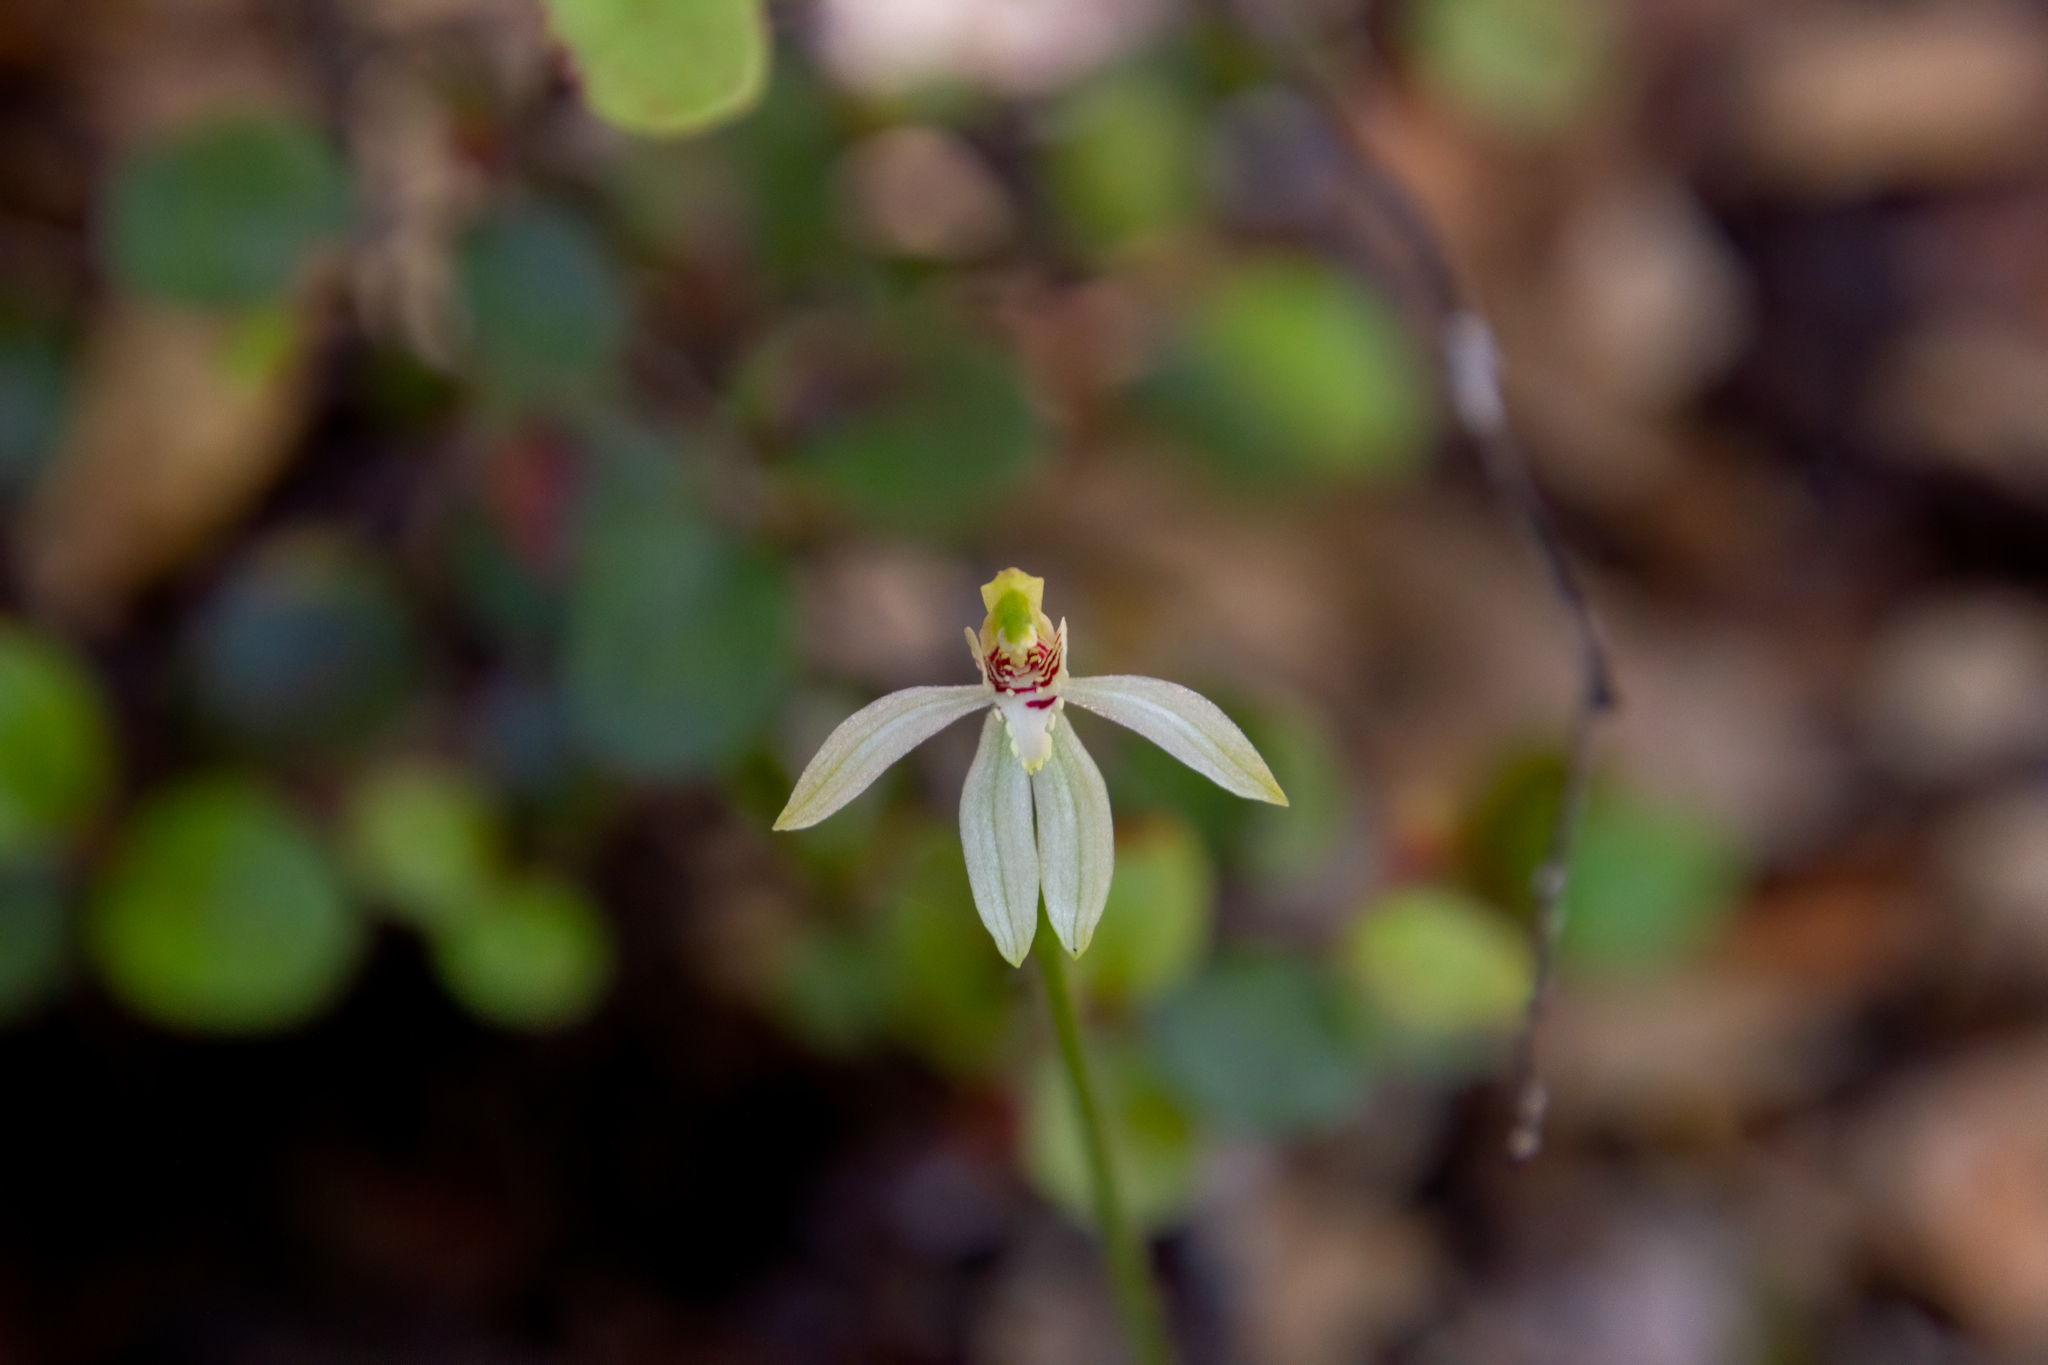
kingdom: Plantae
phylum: Tracheophyta
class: Liliopsida
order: Asparagales
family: Orchidaceae
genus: Caladenia
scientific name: Caladenia chlorostyla
